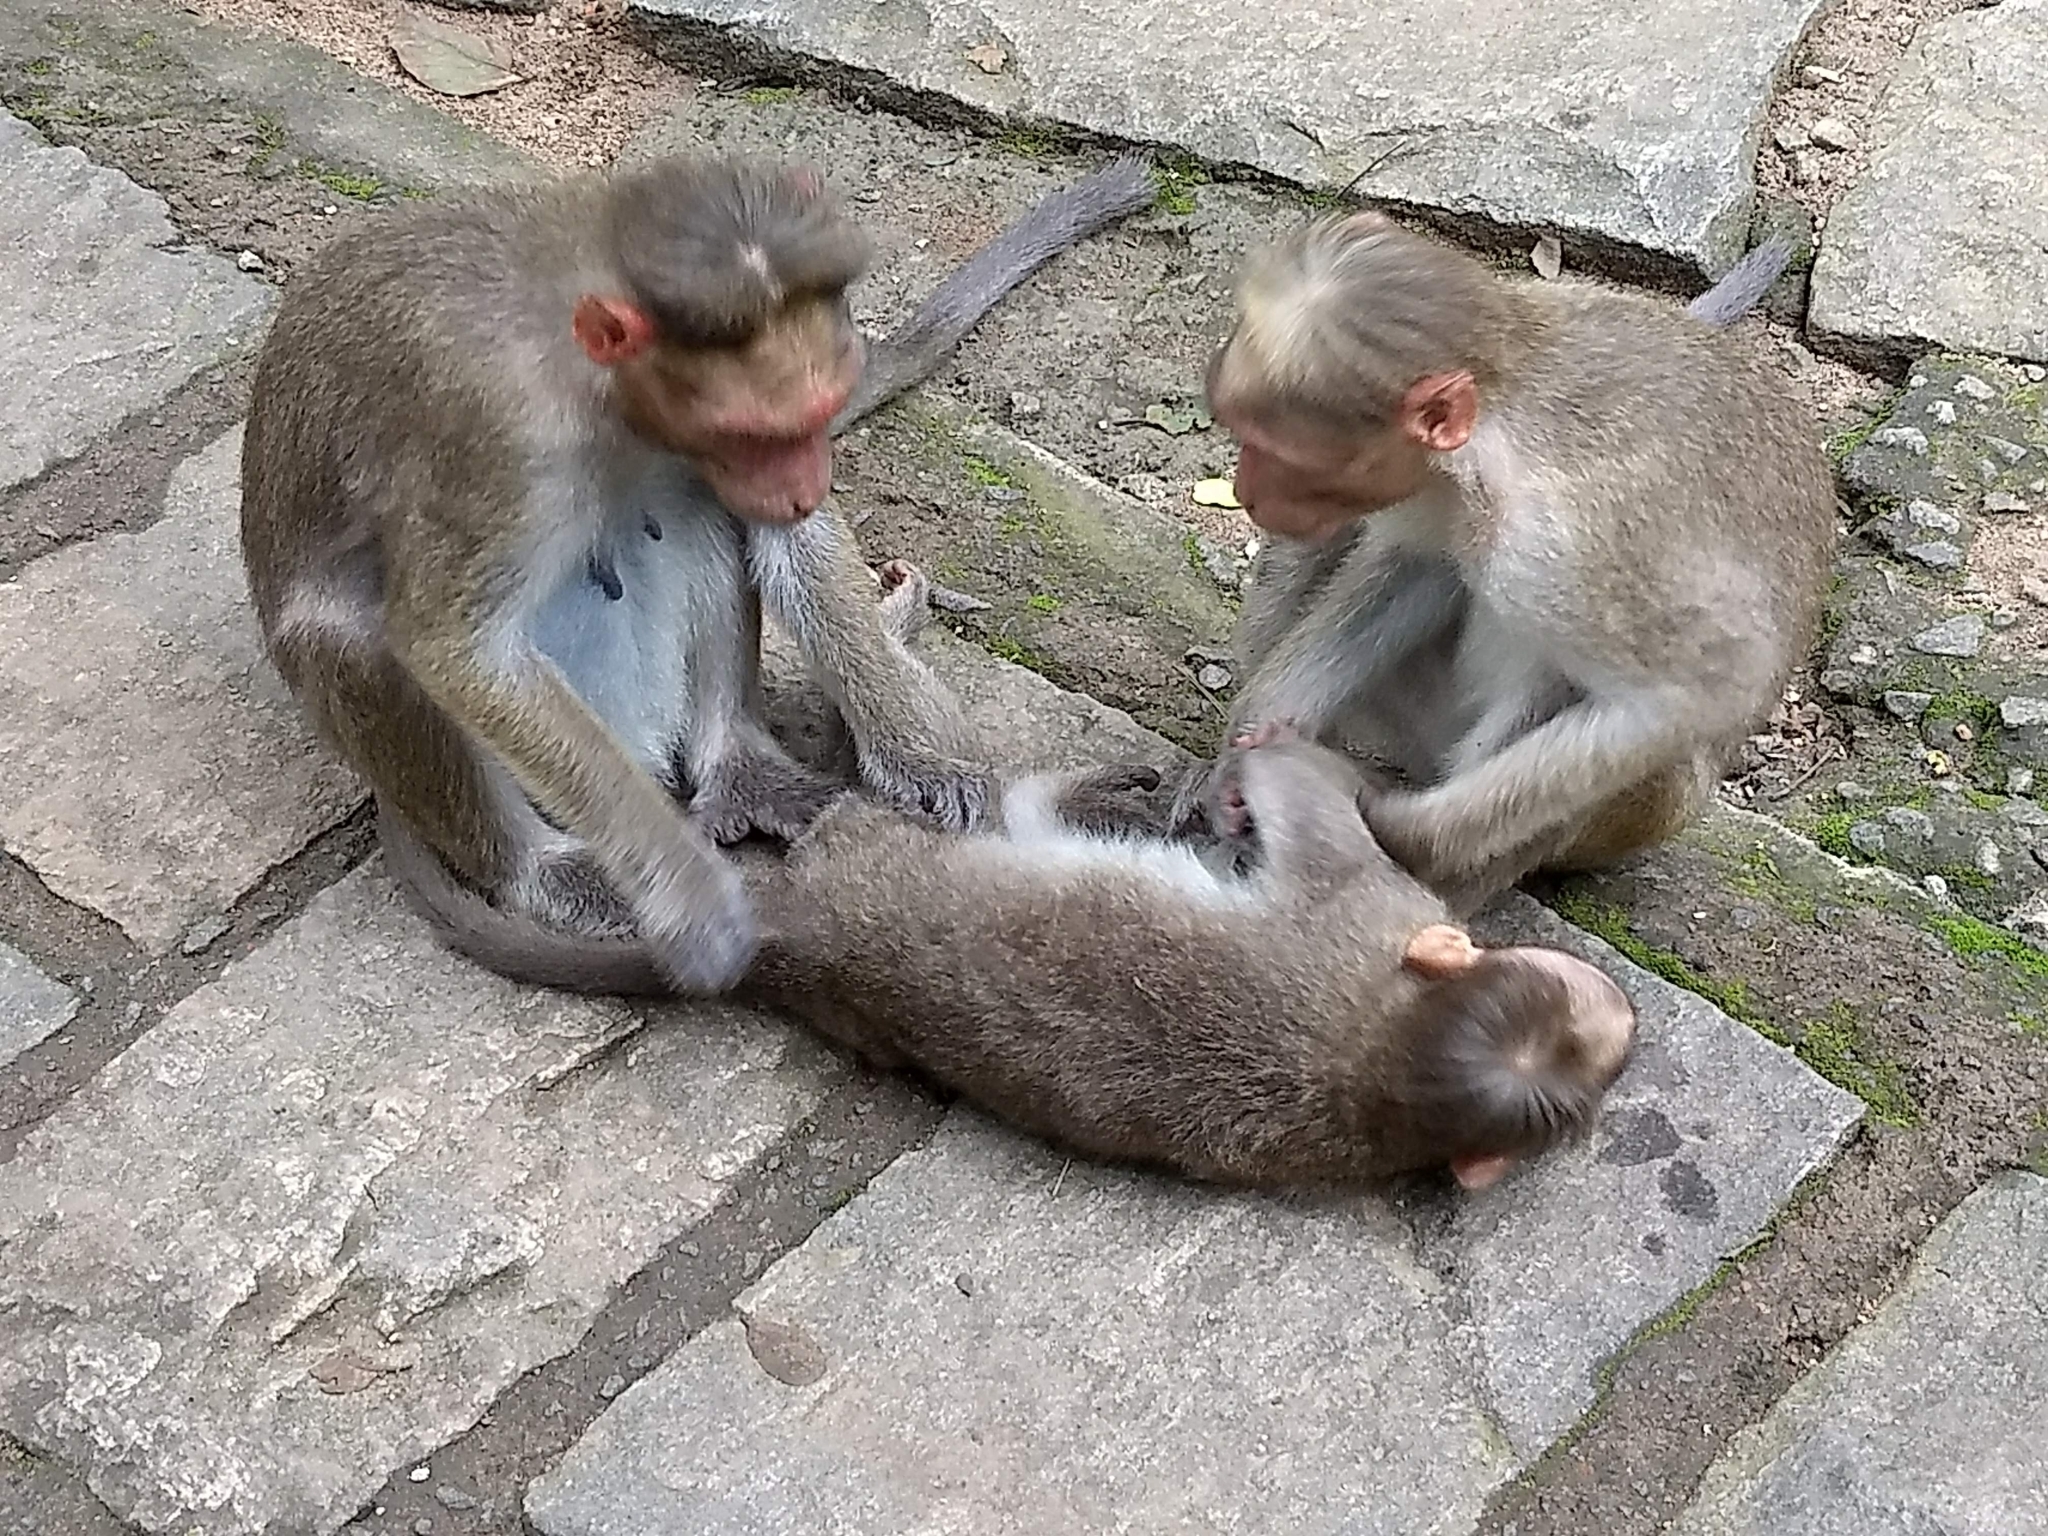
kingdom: Animalia
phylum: Chordata
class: Mammalia
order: Primates
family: Cercopithecidae
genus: Macaca
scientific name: Macaca radiata
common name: Bonnet macaque
